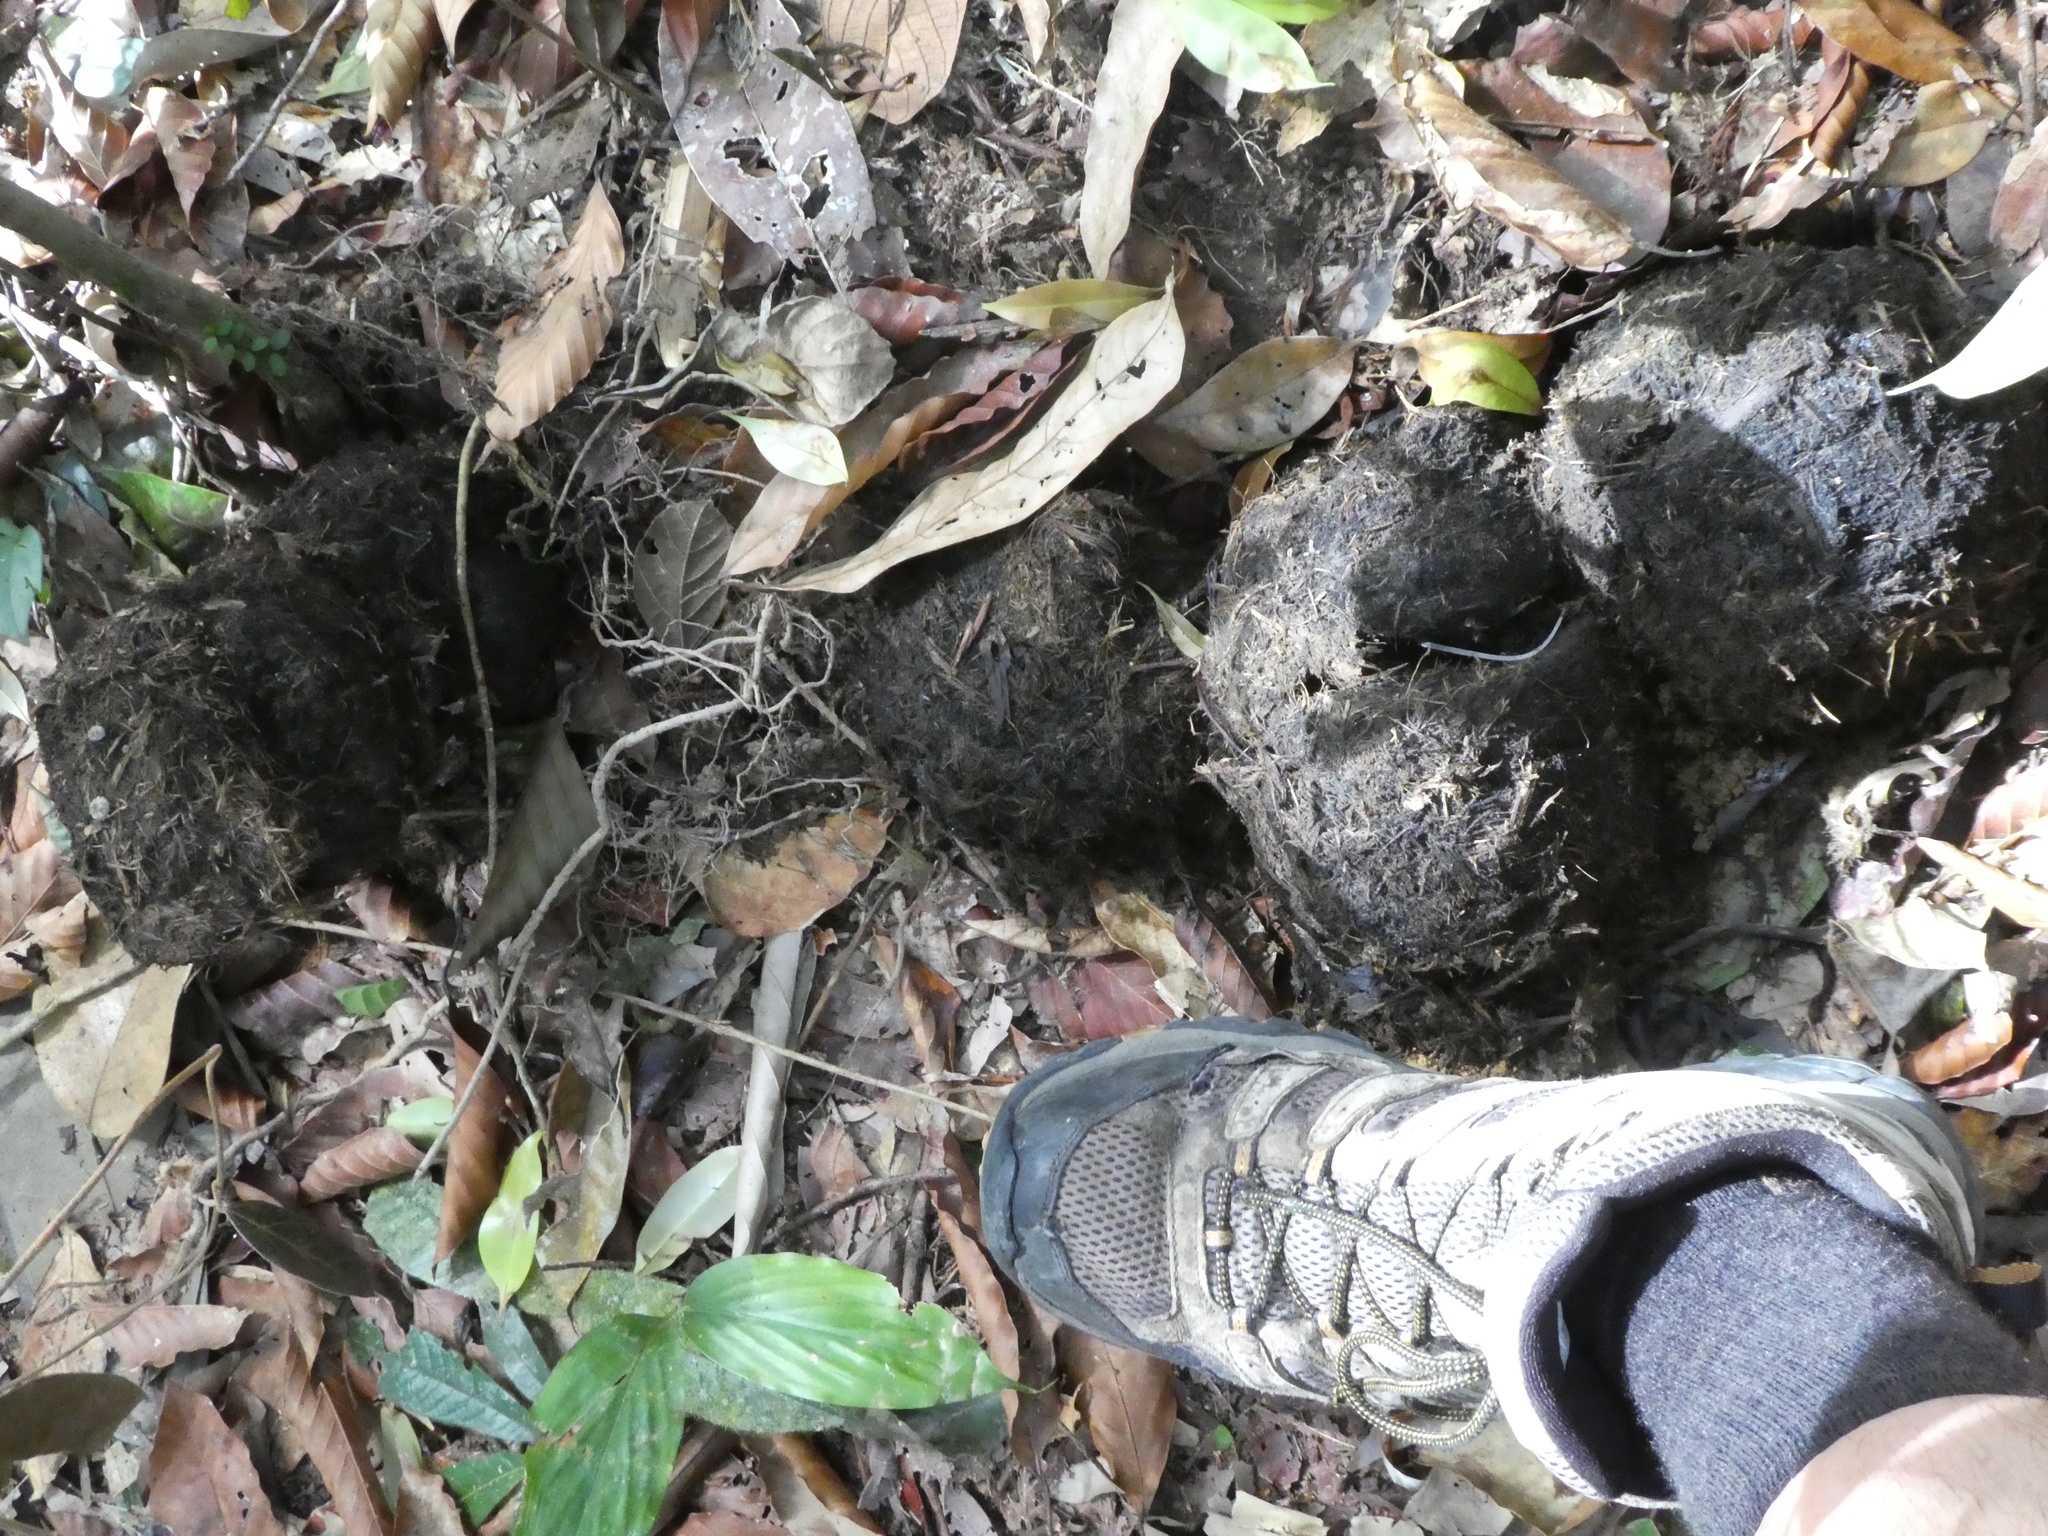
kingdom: Animalia
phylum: Chordata
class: Mammalia
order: Proboscidea
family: Elephantidae
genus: Elephas
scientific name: Elephas maximus
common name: Asian elephant
